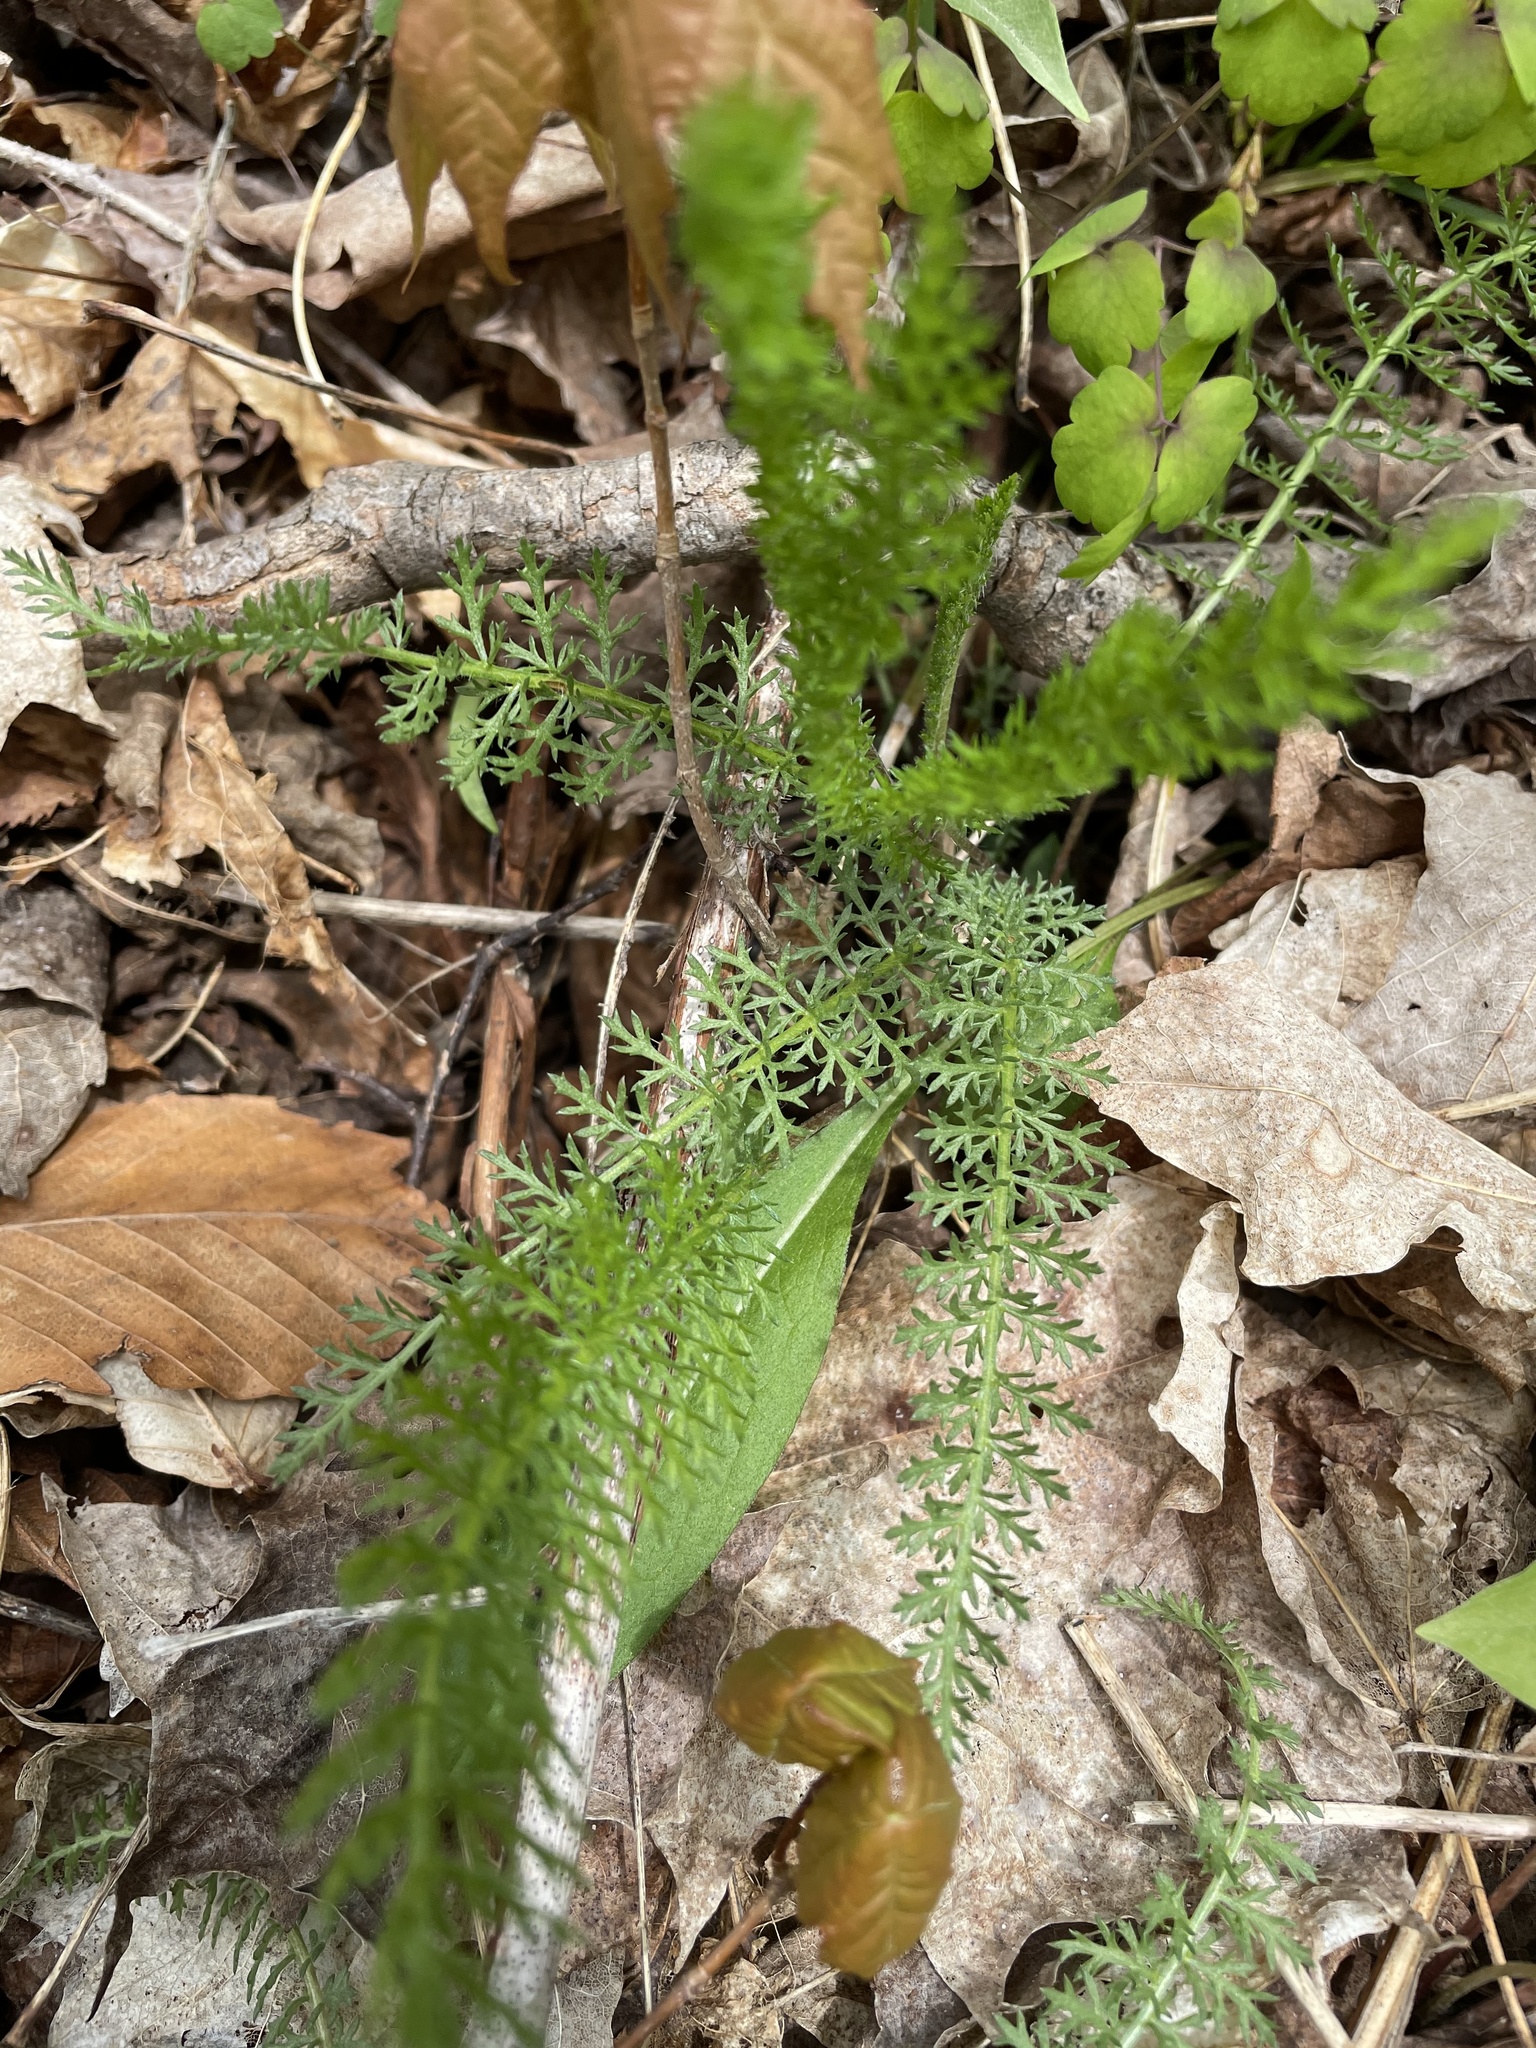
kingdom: Plantae
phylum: Tracheophyta
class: Magnoliopsida
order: Asterales
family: Asteraceae
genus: Achillea
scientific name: Achillea millefolium
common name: Yarrow
